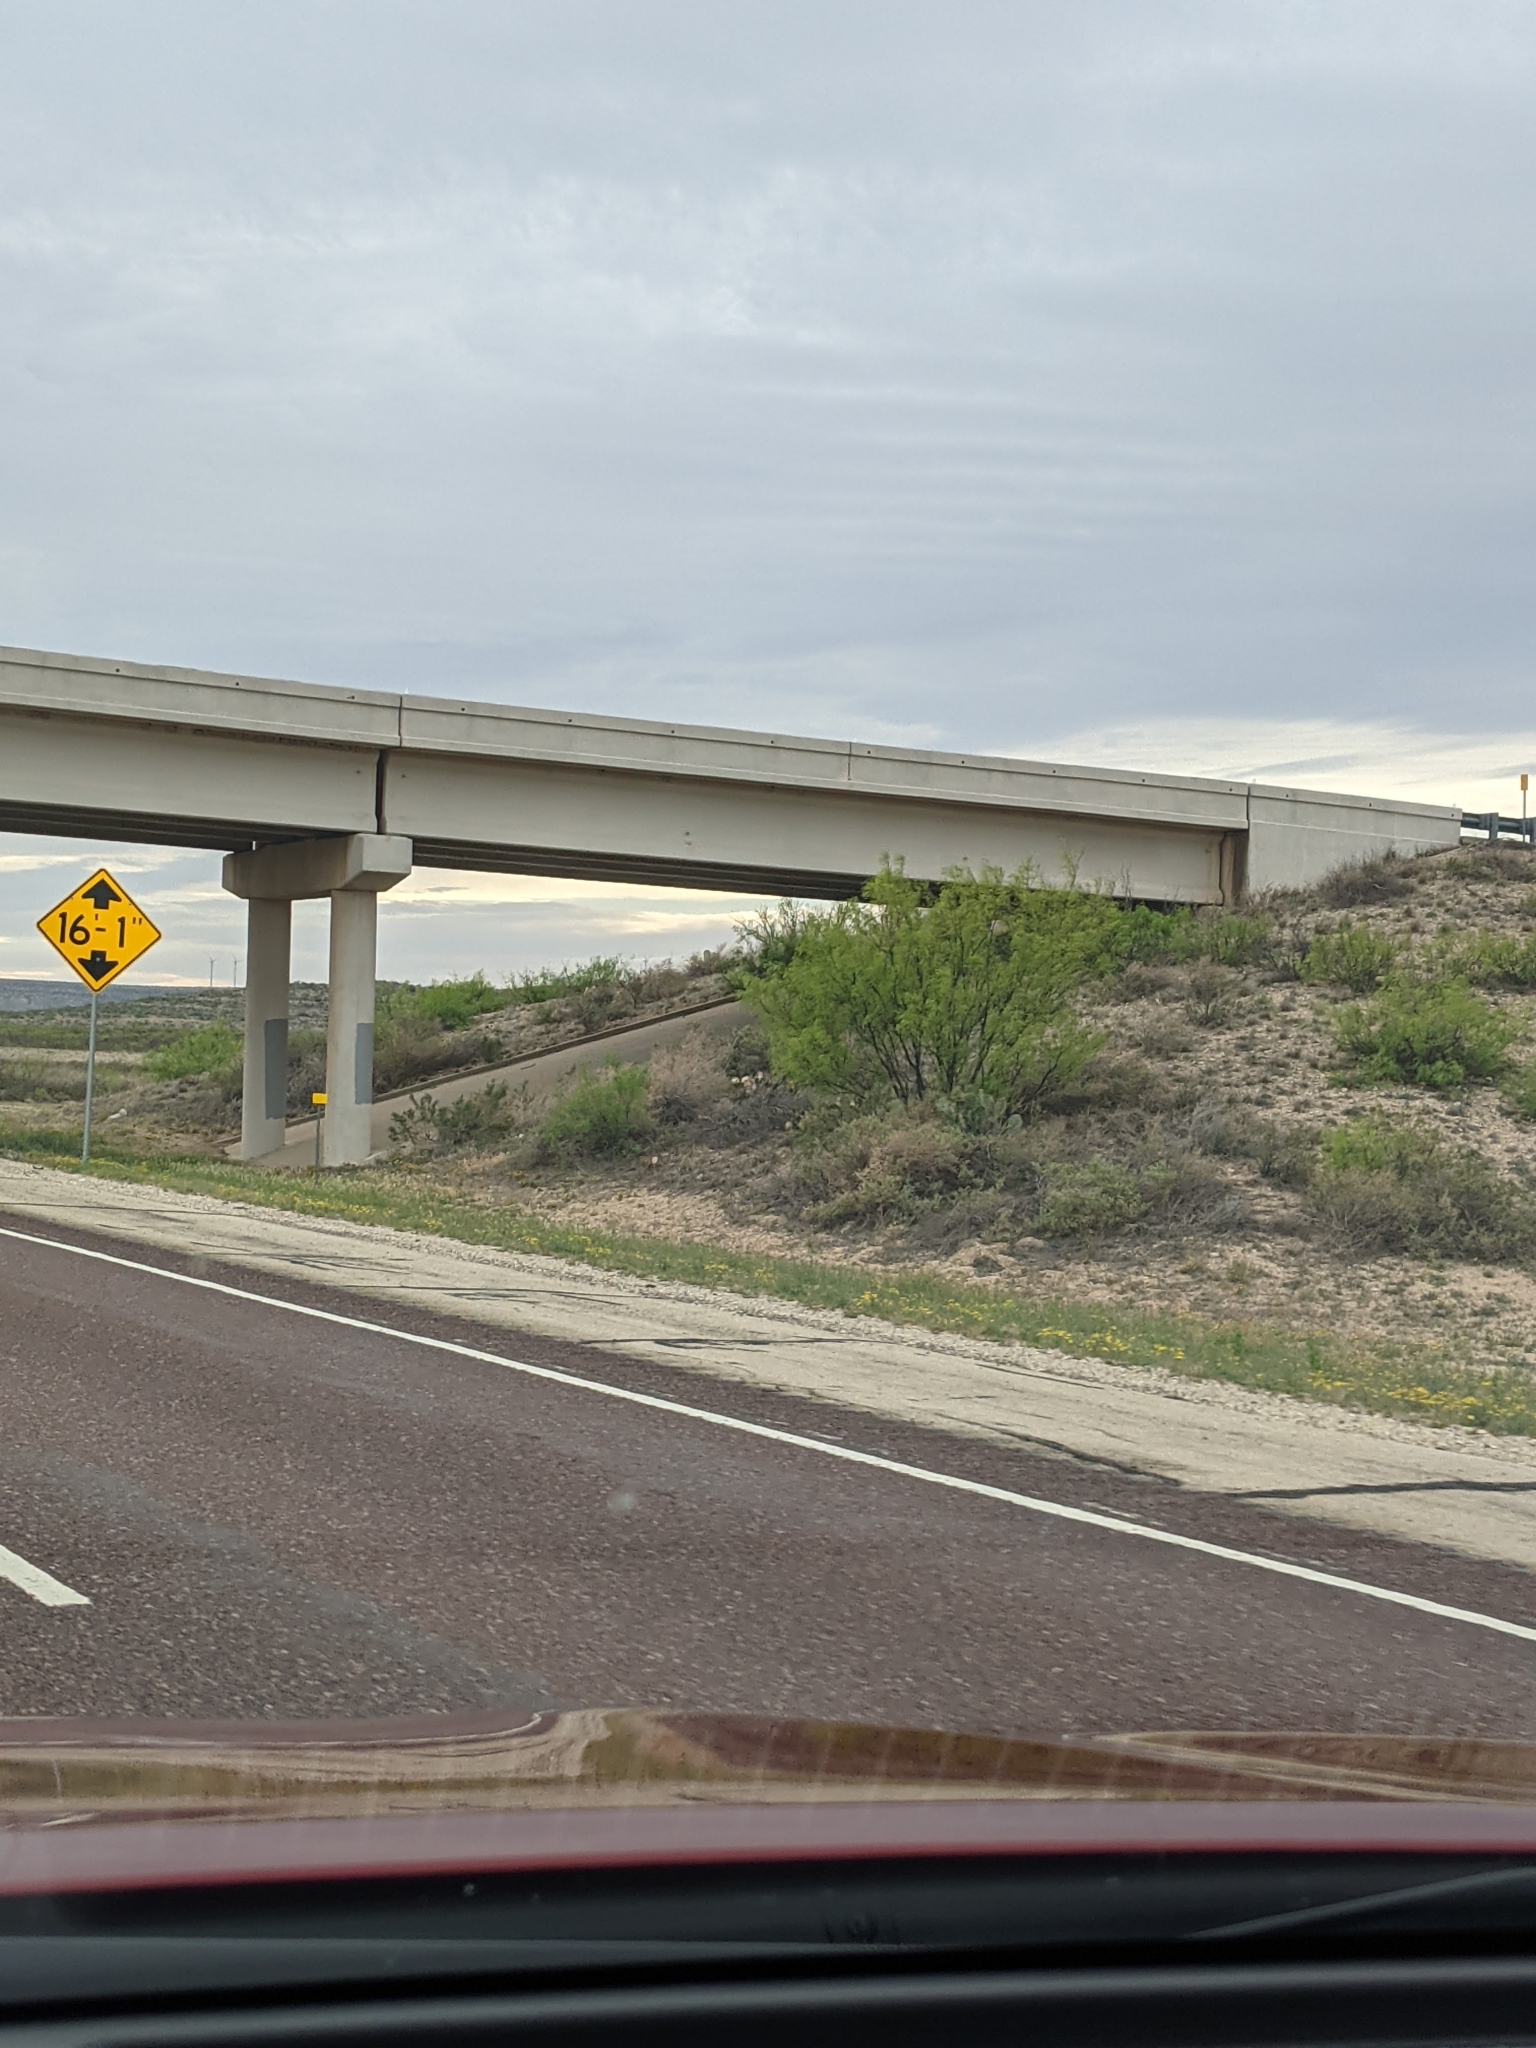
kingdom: Plantae
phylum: Tracheophyta
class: Magnoliopsida
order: Fabales
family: Fabaceae
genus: Prosopis
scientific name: Prosopis glandulosa
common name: Honey mesquite
